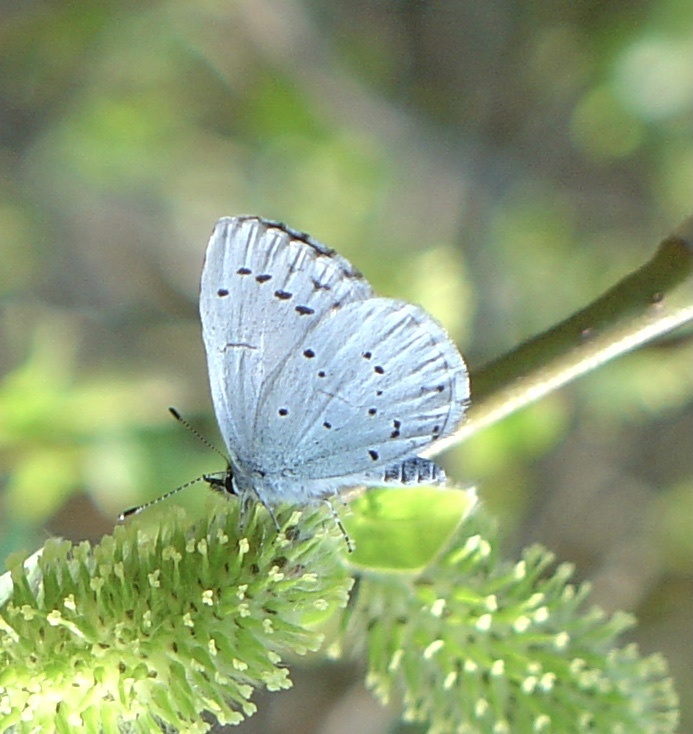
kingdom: Animalia
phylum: Arthropoda
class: Insecta
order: Lepidoptera
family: Lycaenidae
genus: Celastrina
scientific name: Celastrina argiolus
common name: Holly blue
